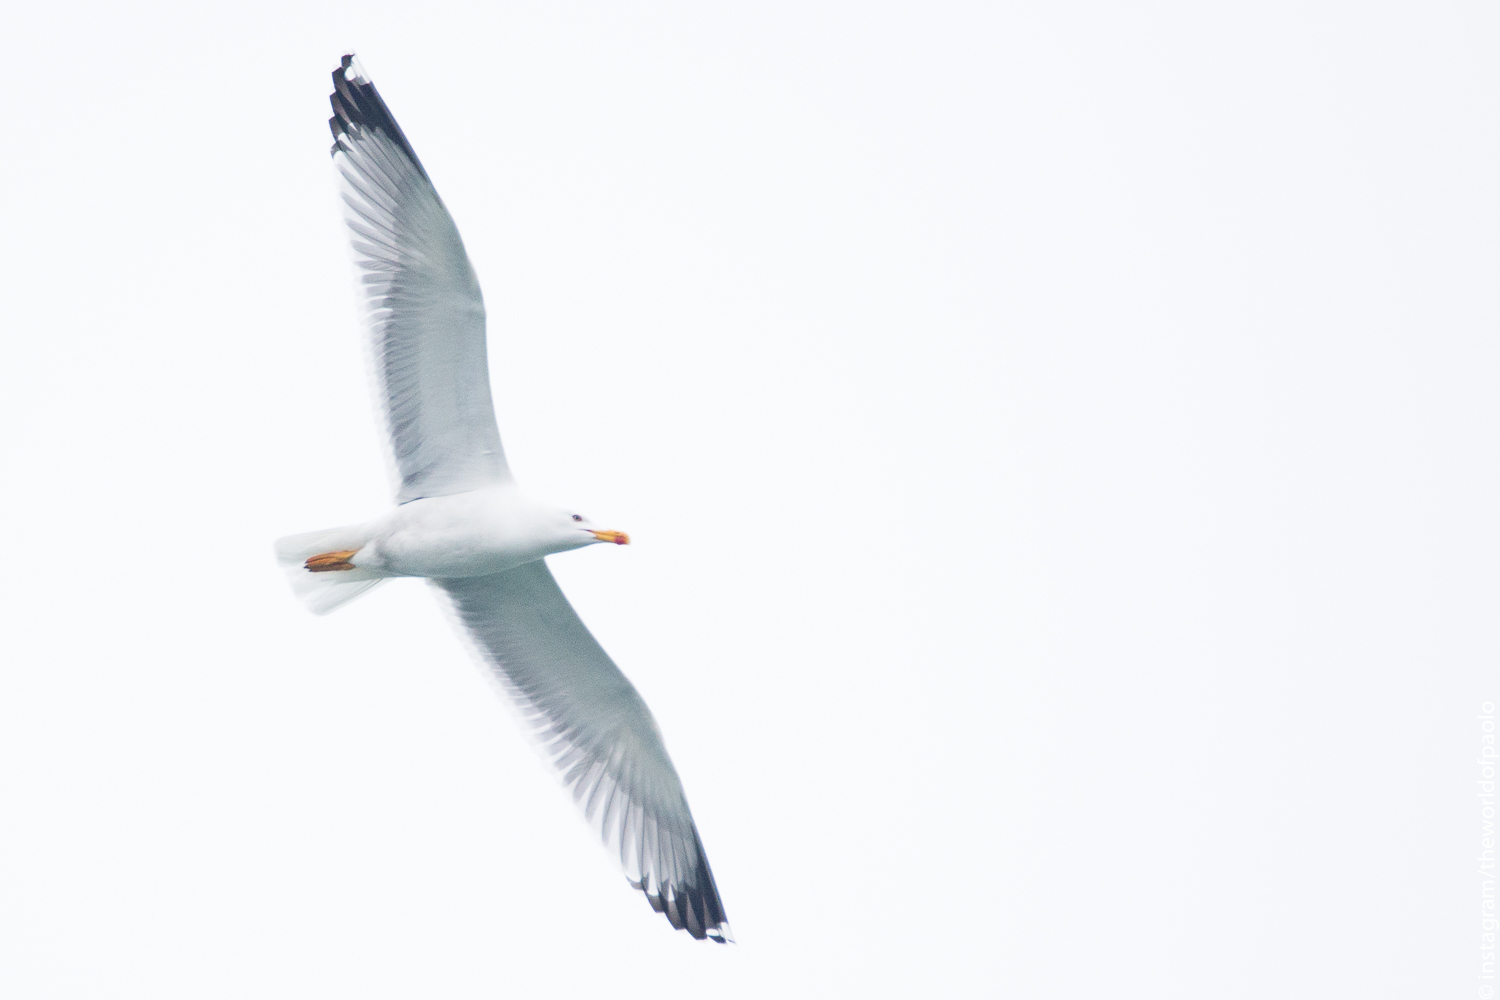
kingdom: Animalia
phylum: Chordata
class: Aves
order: Charadriiformes
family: Laridae
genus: Larus
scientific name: Larus michahellis
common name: Yellow-legged gull
